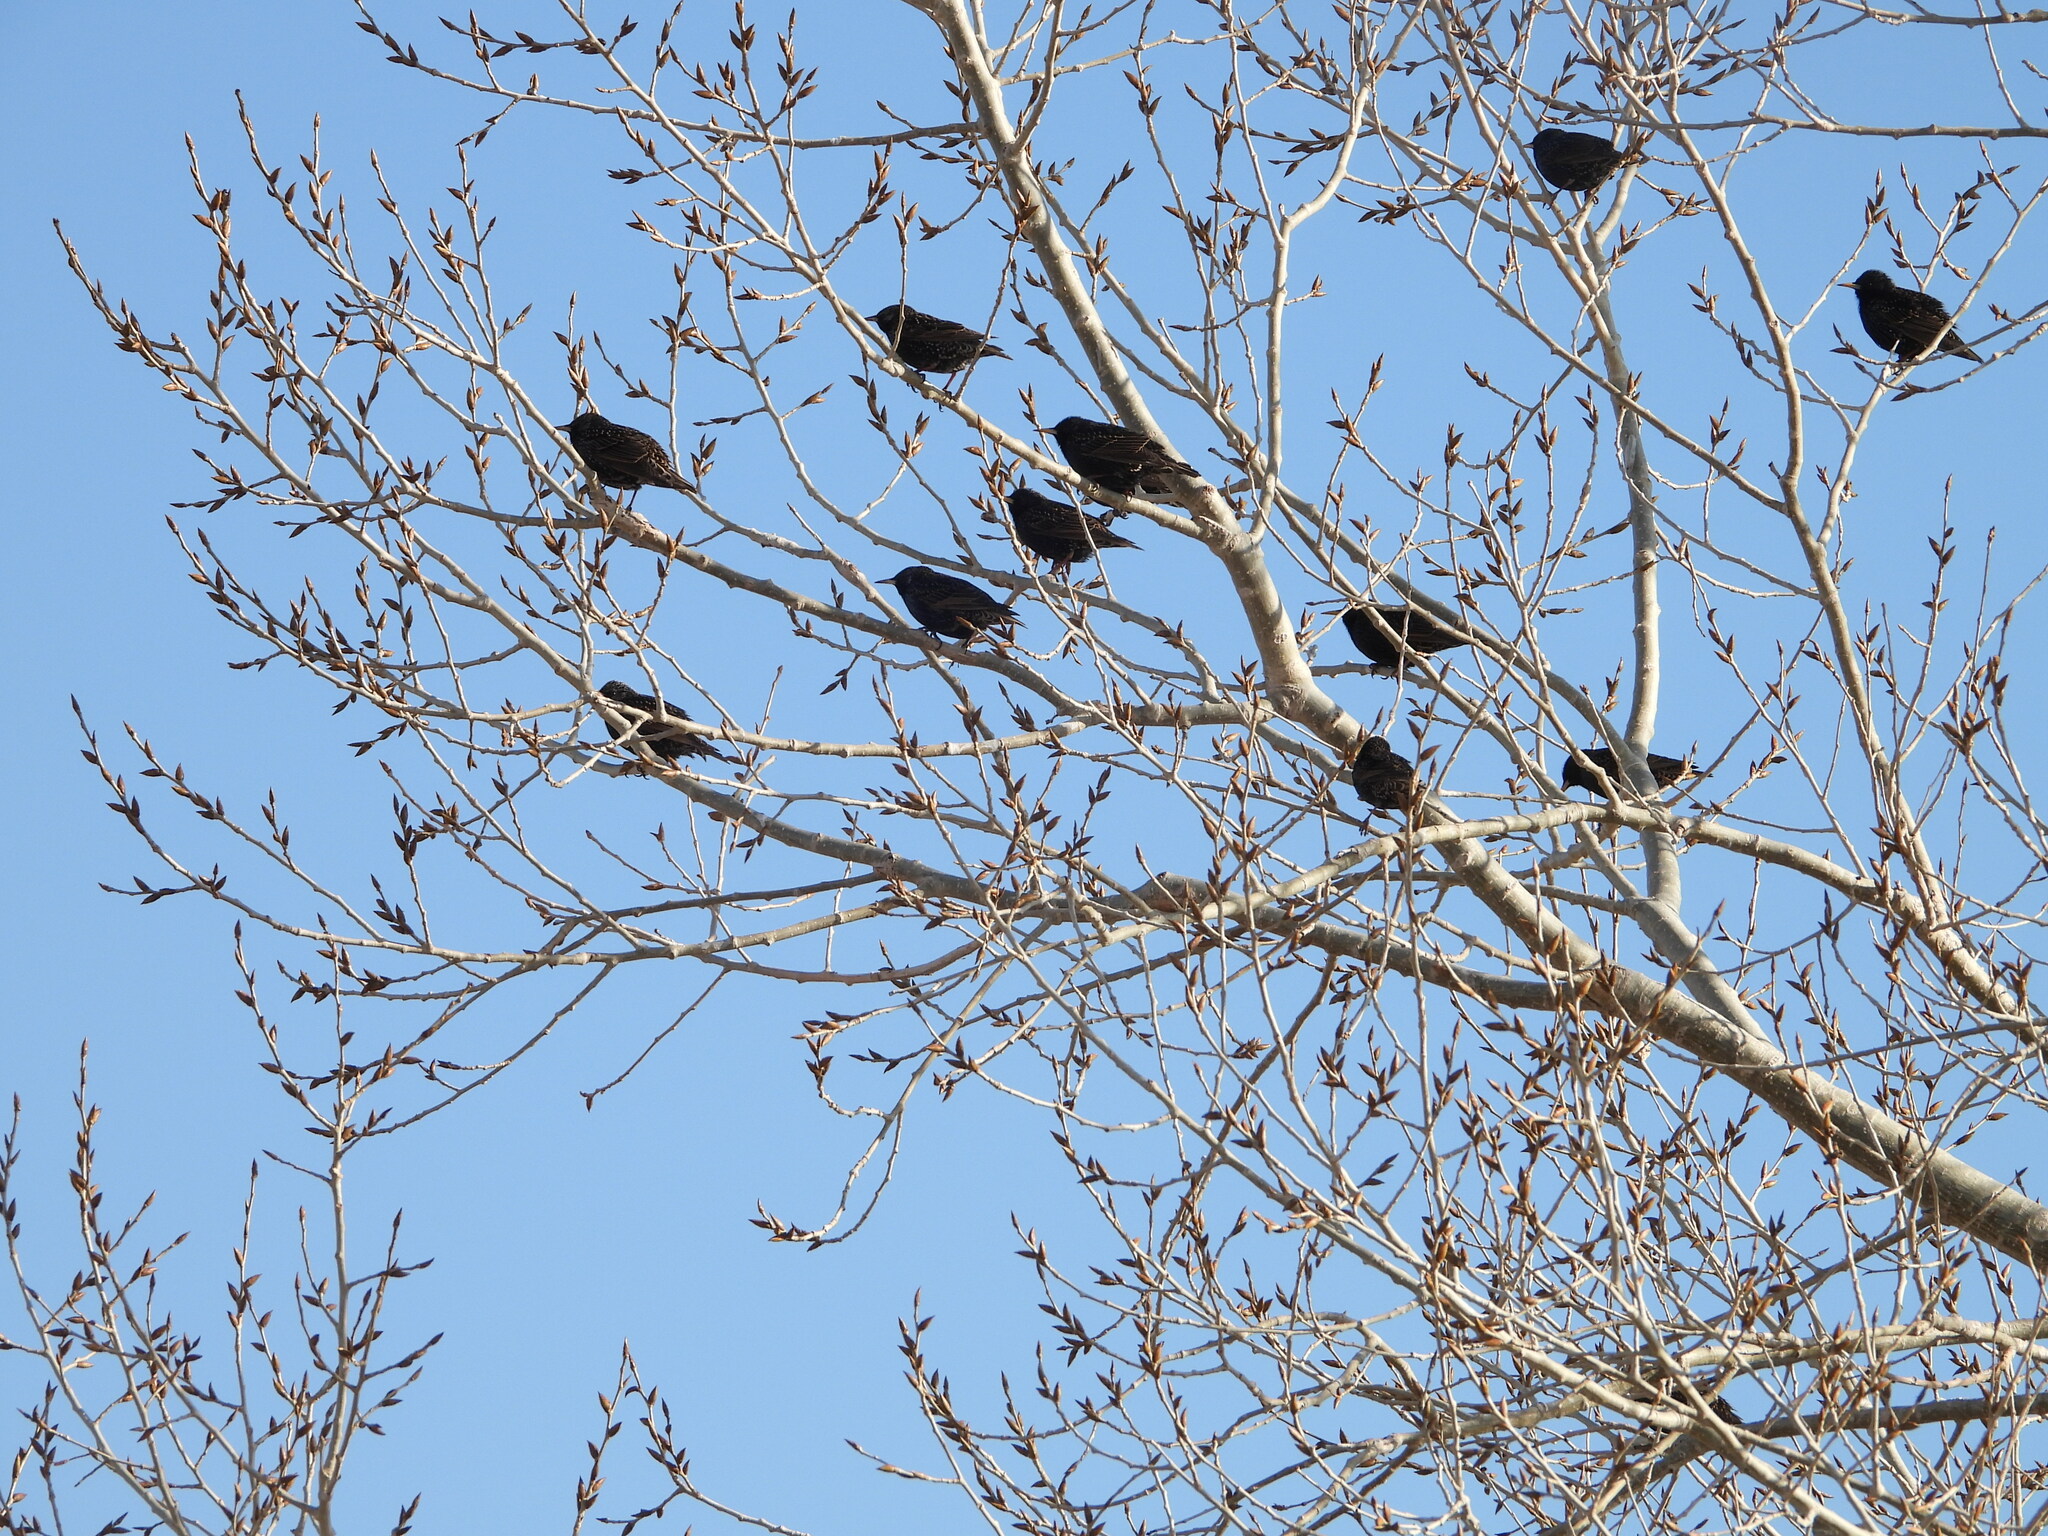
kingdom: Animalia
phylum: Chordata
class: Aves
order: Passeriformes
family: Sturnidae
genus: Sturnus
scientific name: Sturnus vulgaris
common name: Common starling
